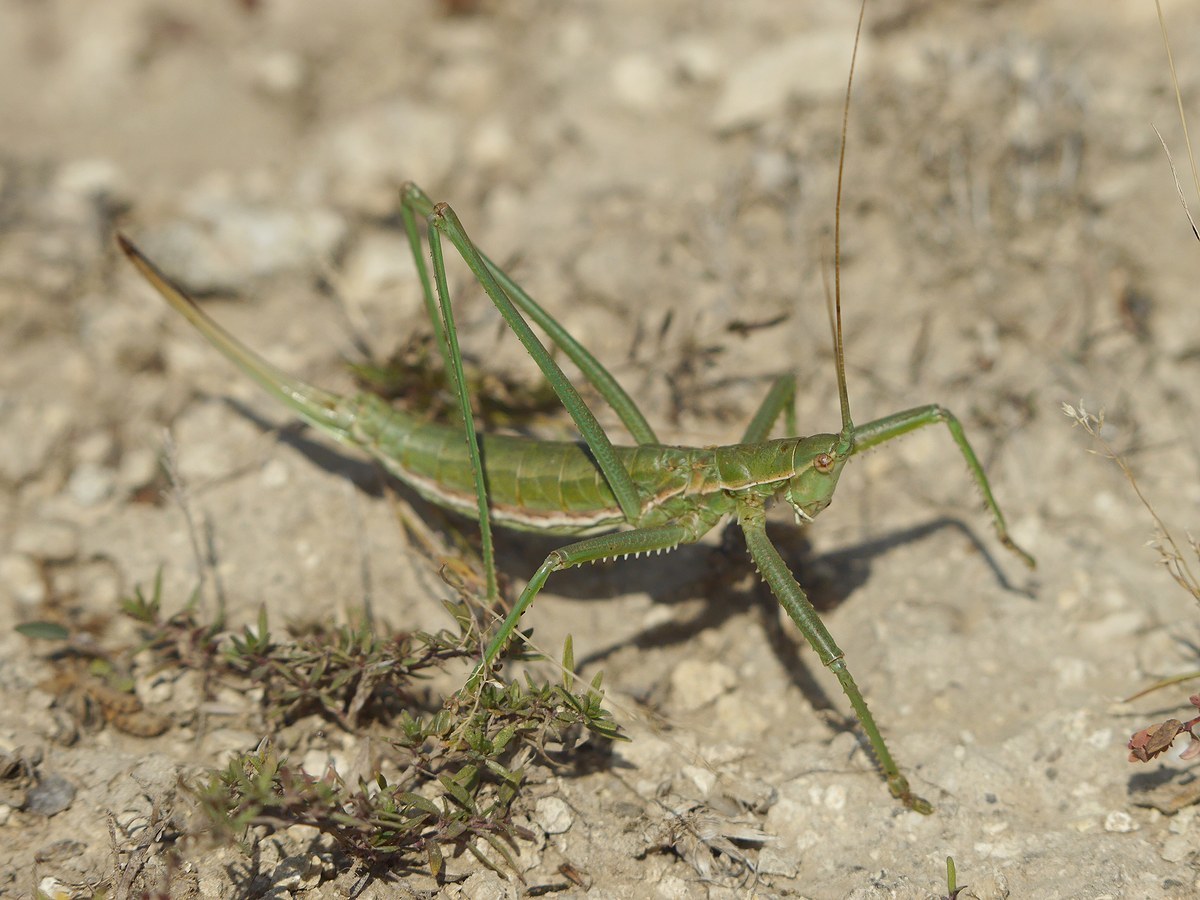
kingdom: Animalia
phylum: Arthropoda
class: Insecta
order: Orthoptera
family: Tettigoniidae
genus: Saga
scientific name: Saga pedo
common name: Common predatory bush-cricket
